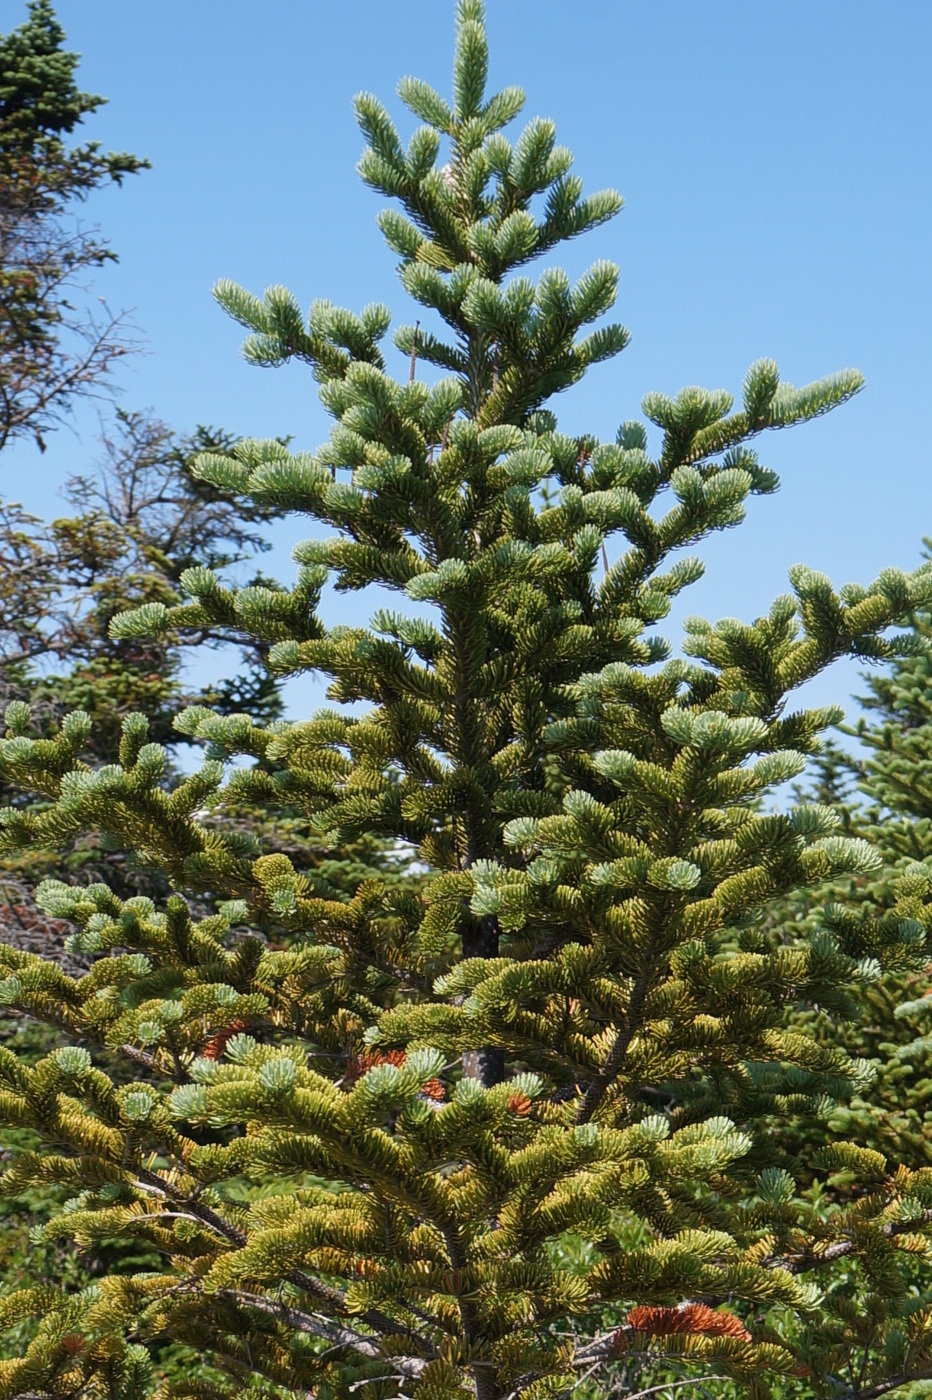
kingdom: Plantae
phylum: Tracheophyta
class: Pinopsida
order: Pinales
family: Pinaceae
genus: Abies
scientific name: Abies balsamea
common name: Balsam fir
